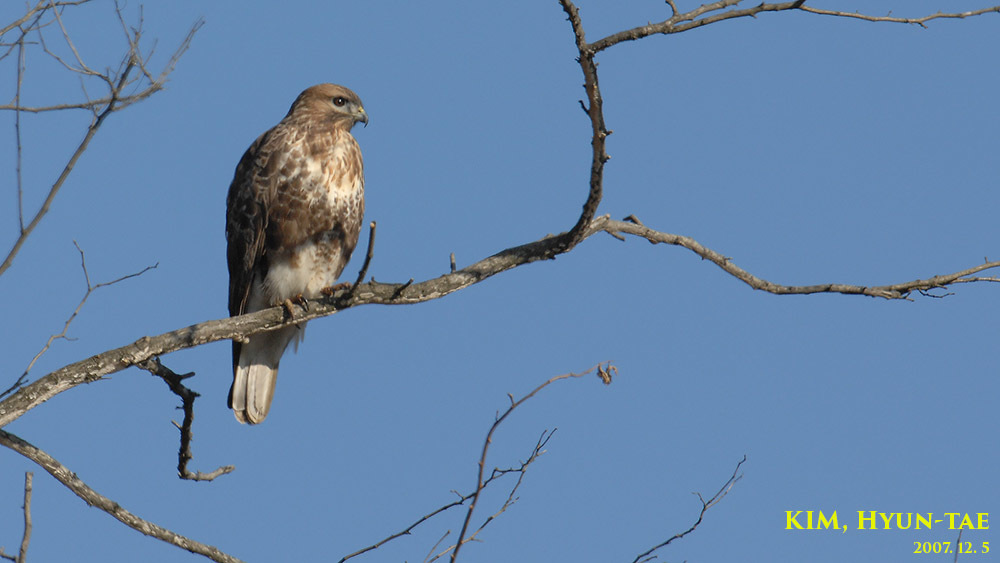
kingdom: Animalia
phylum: Chordata
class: Aves
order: Accipitriformes
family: Accipitridae
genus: Buteo
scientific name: Buteo japonicus
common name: Eastern buzzard
